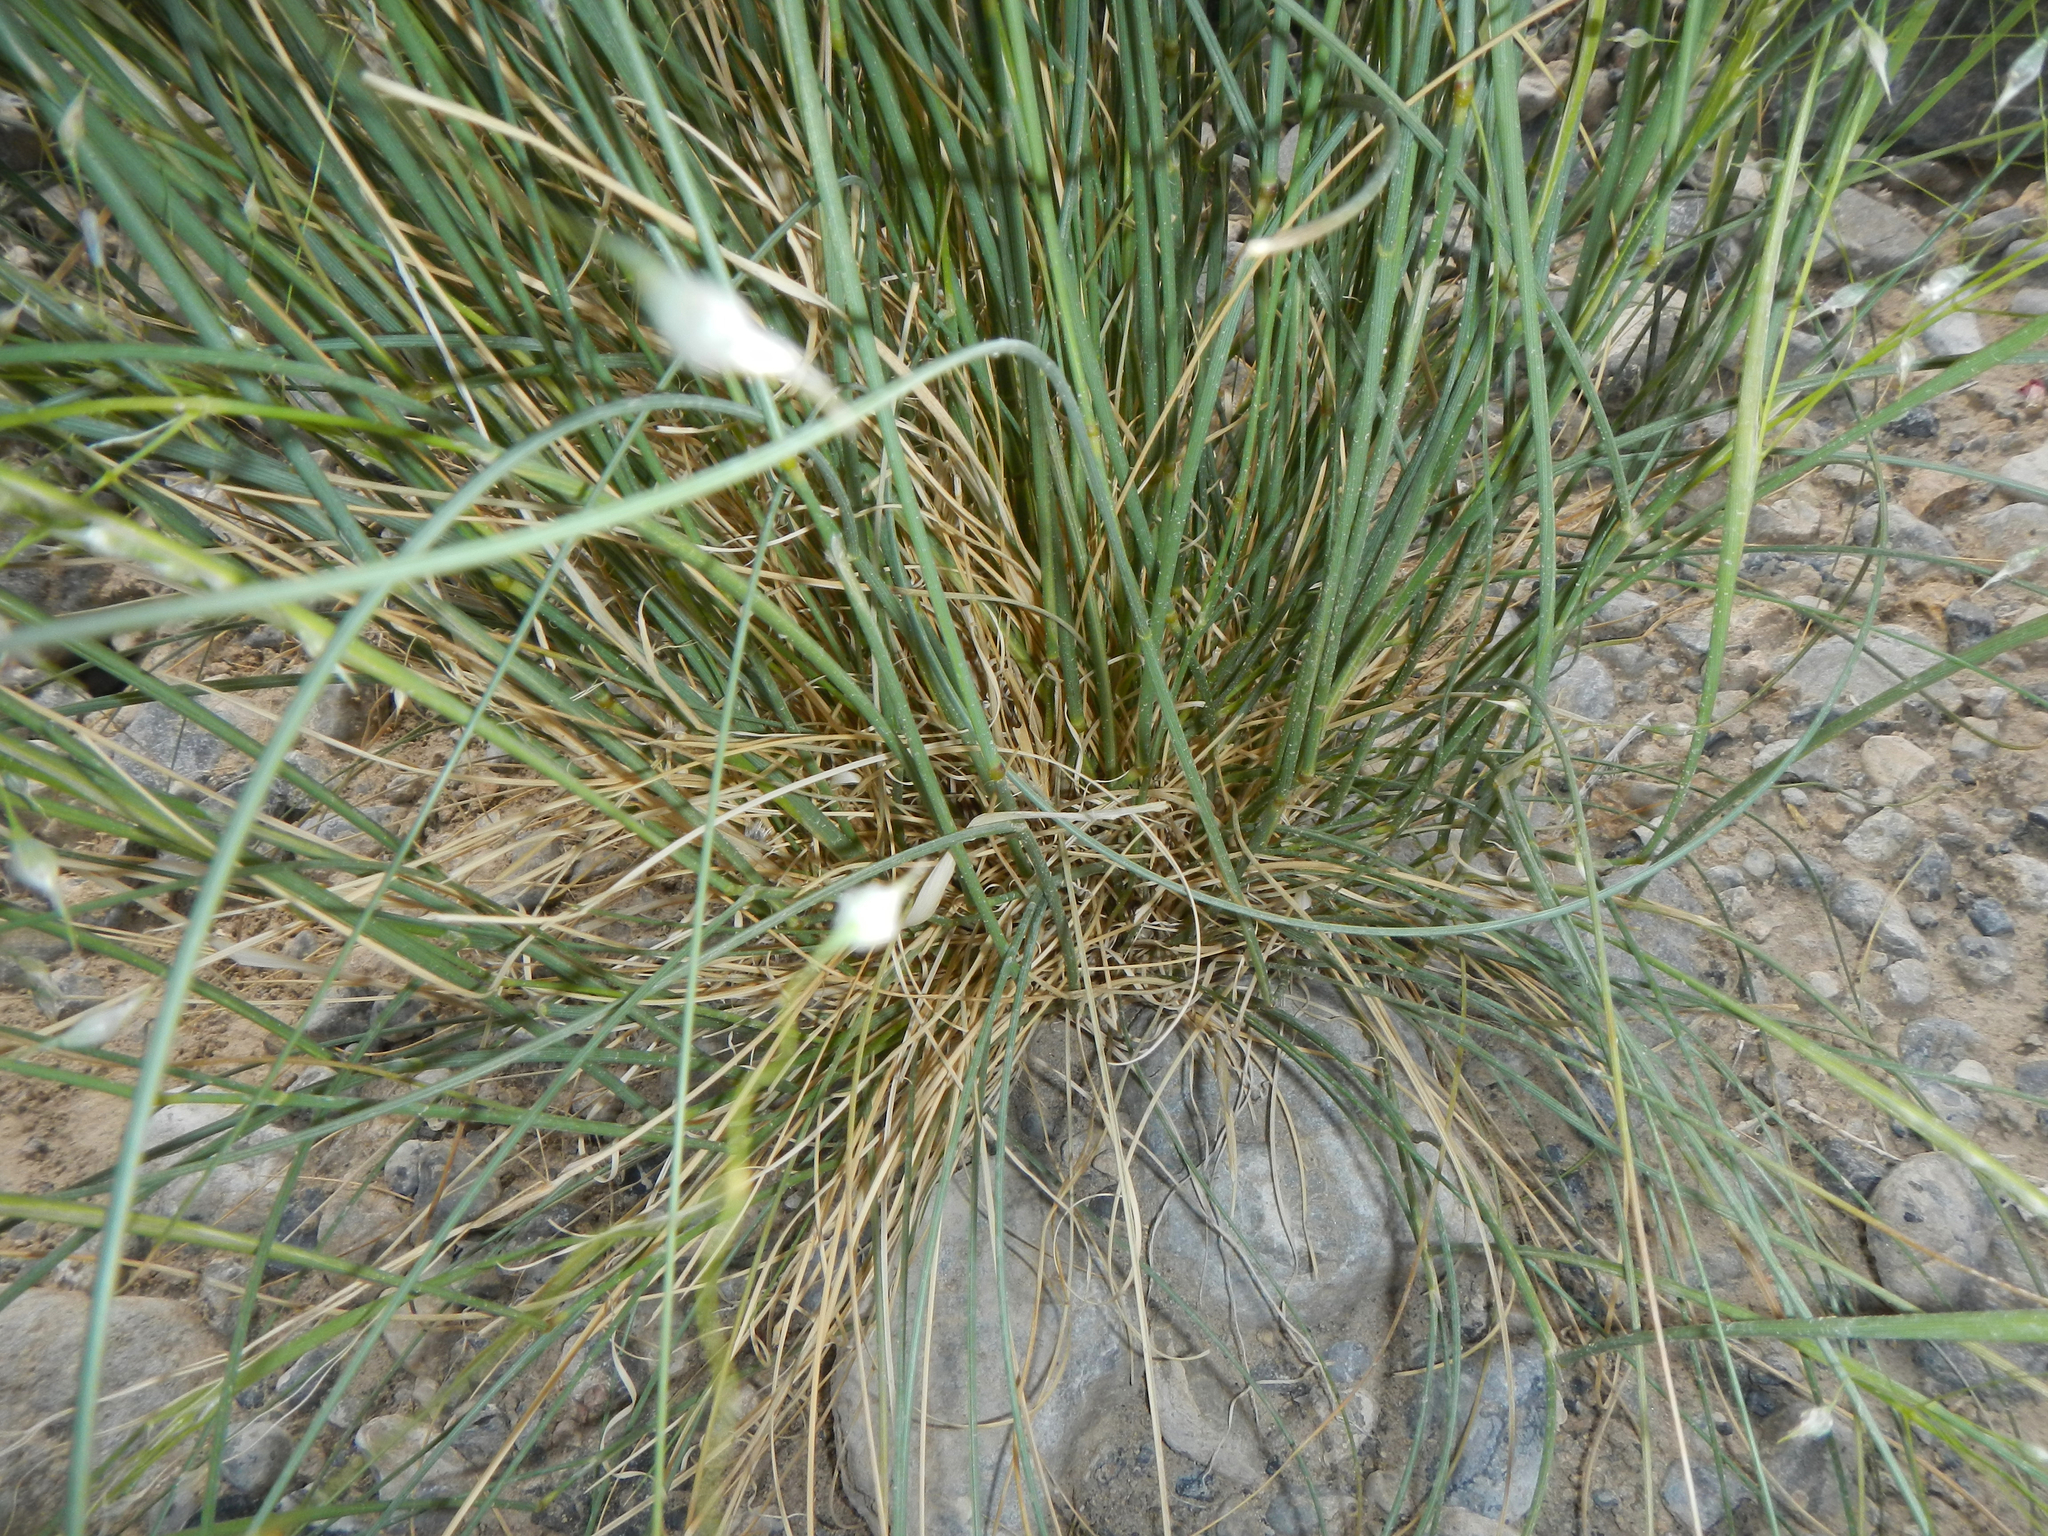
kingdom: Plantae
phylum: Tracheophyta
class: Liliopsida
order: Poales
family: Poaceae
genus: Eriocoma
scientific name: Eriocoma hymenoides
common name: Indian mountain ricegrass
